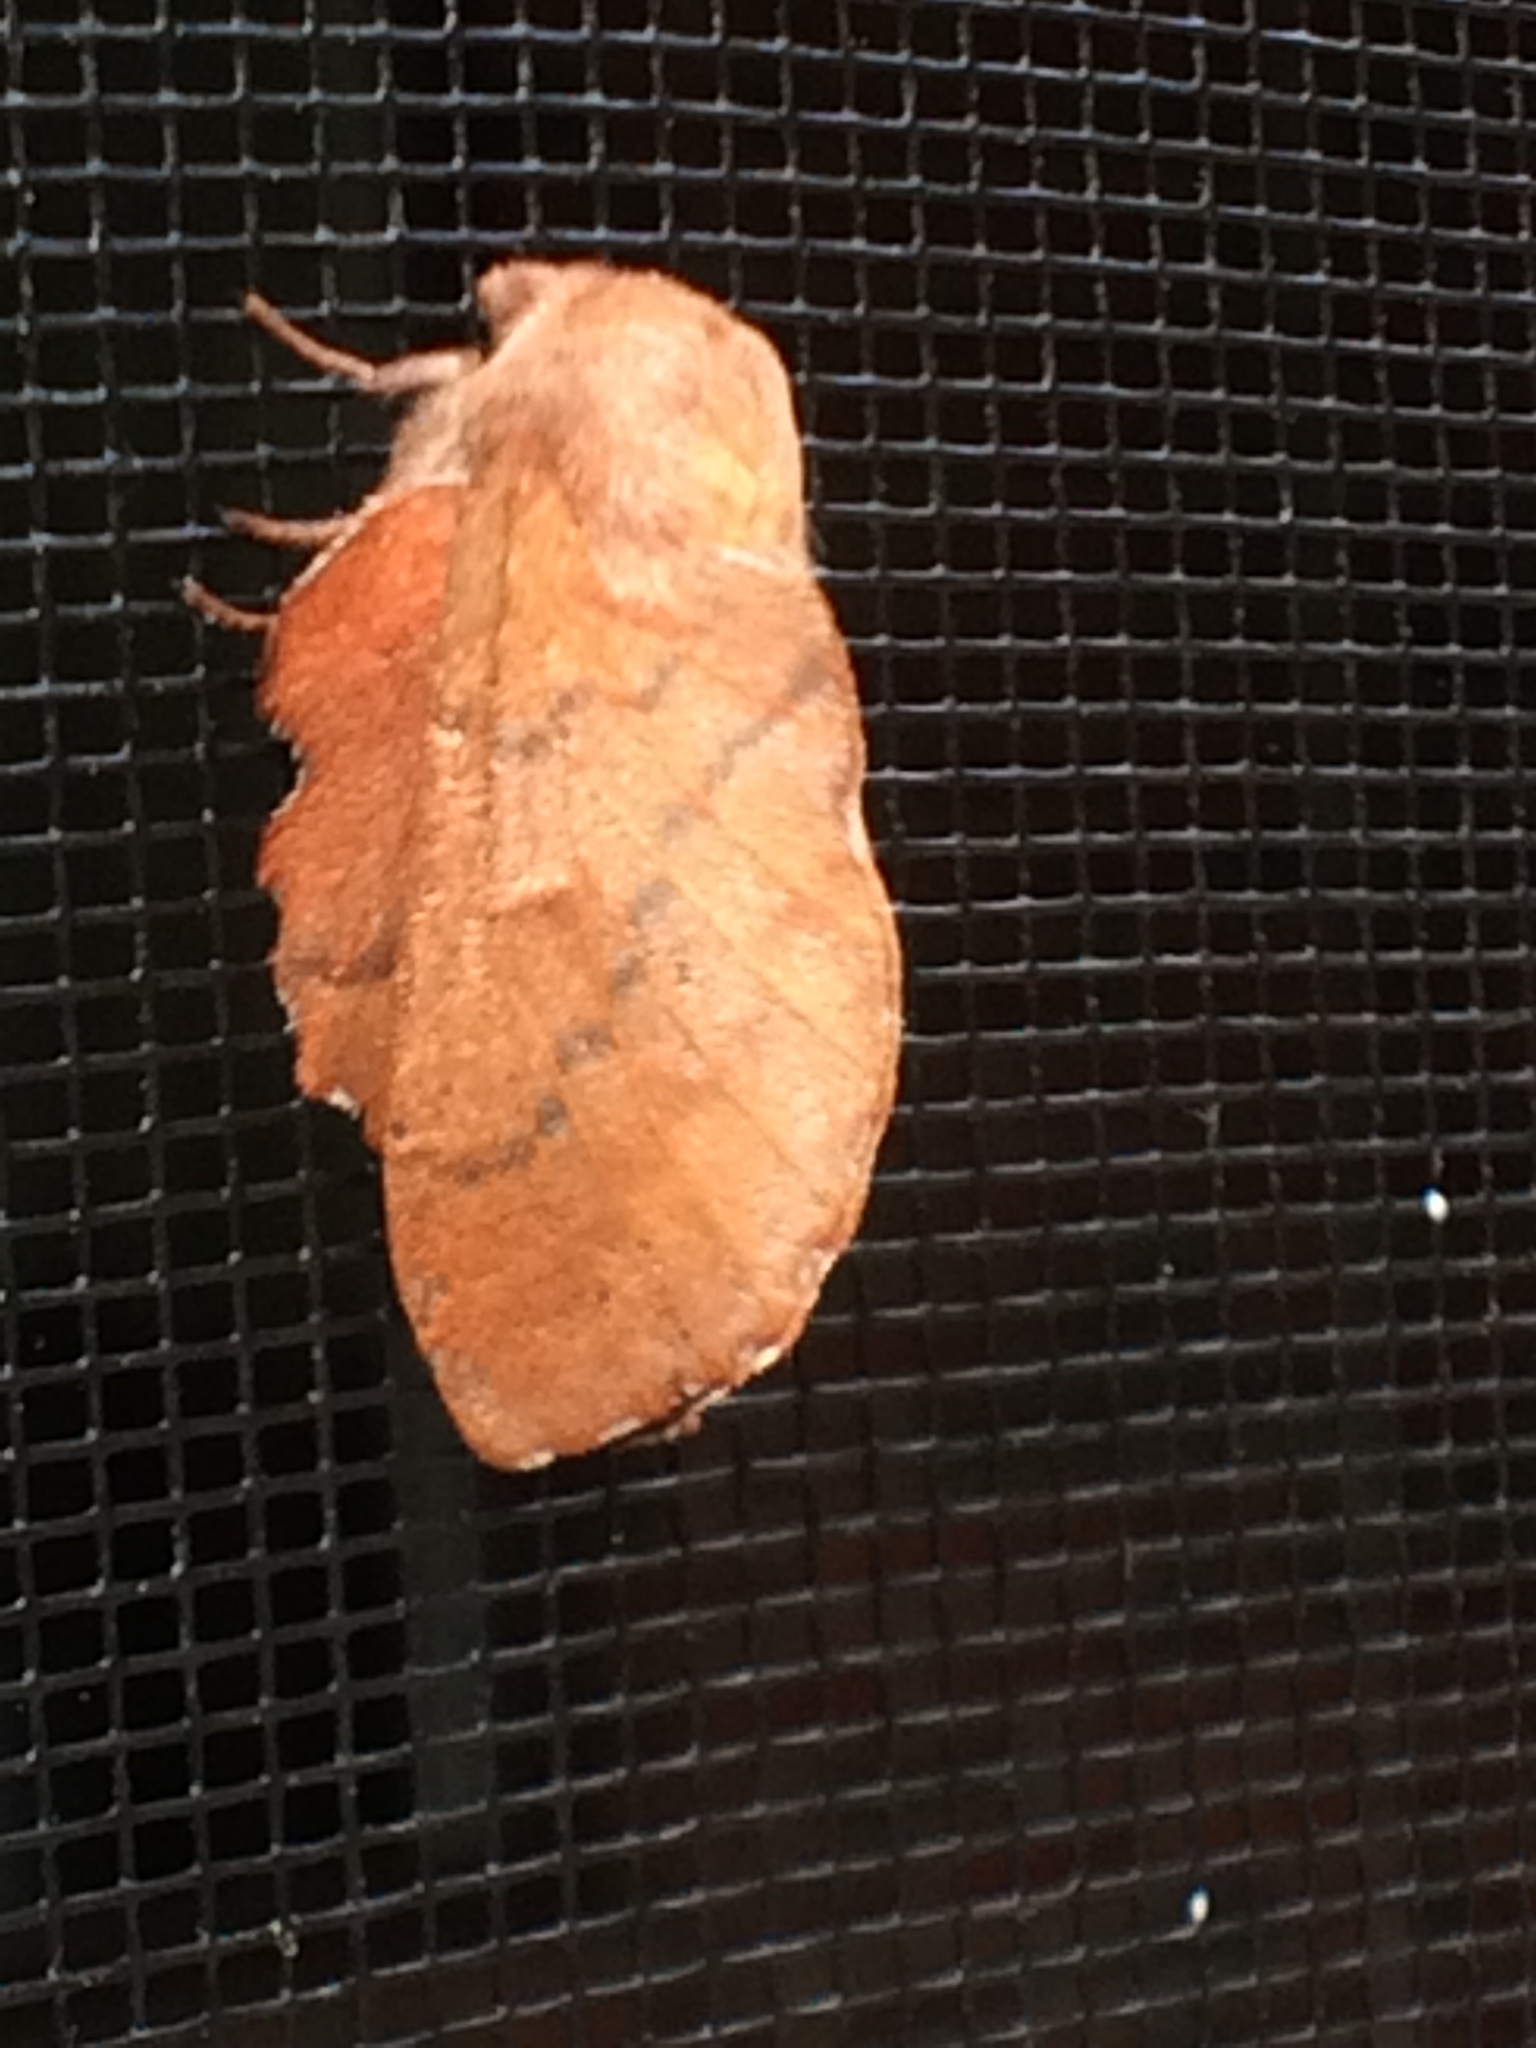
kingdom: Animalia
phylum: Arthropoda
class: Insecta
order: Lepidoptera
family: Lasiocampidae
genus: Phyllodesma
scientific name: Phyllodesma americana
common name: American lappet moth
